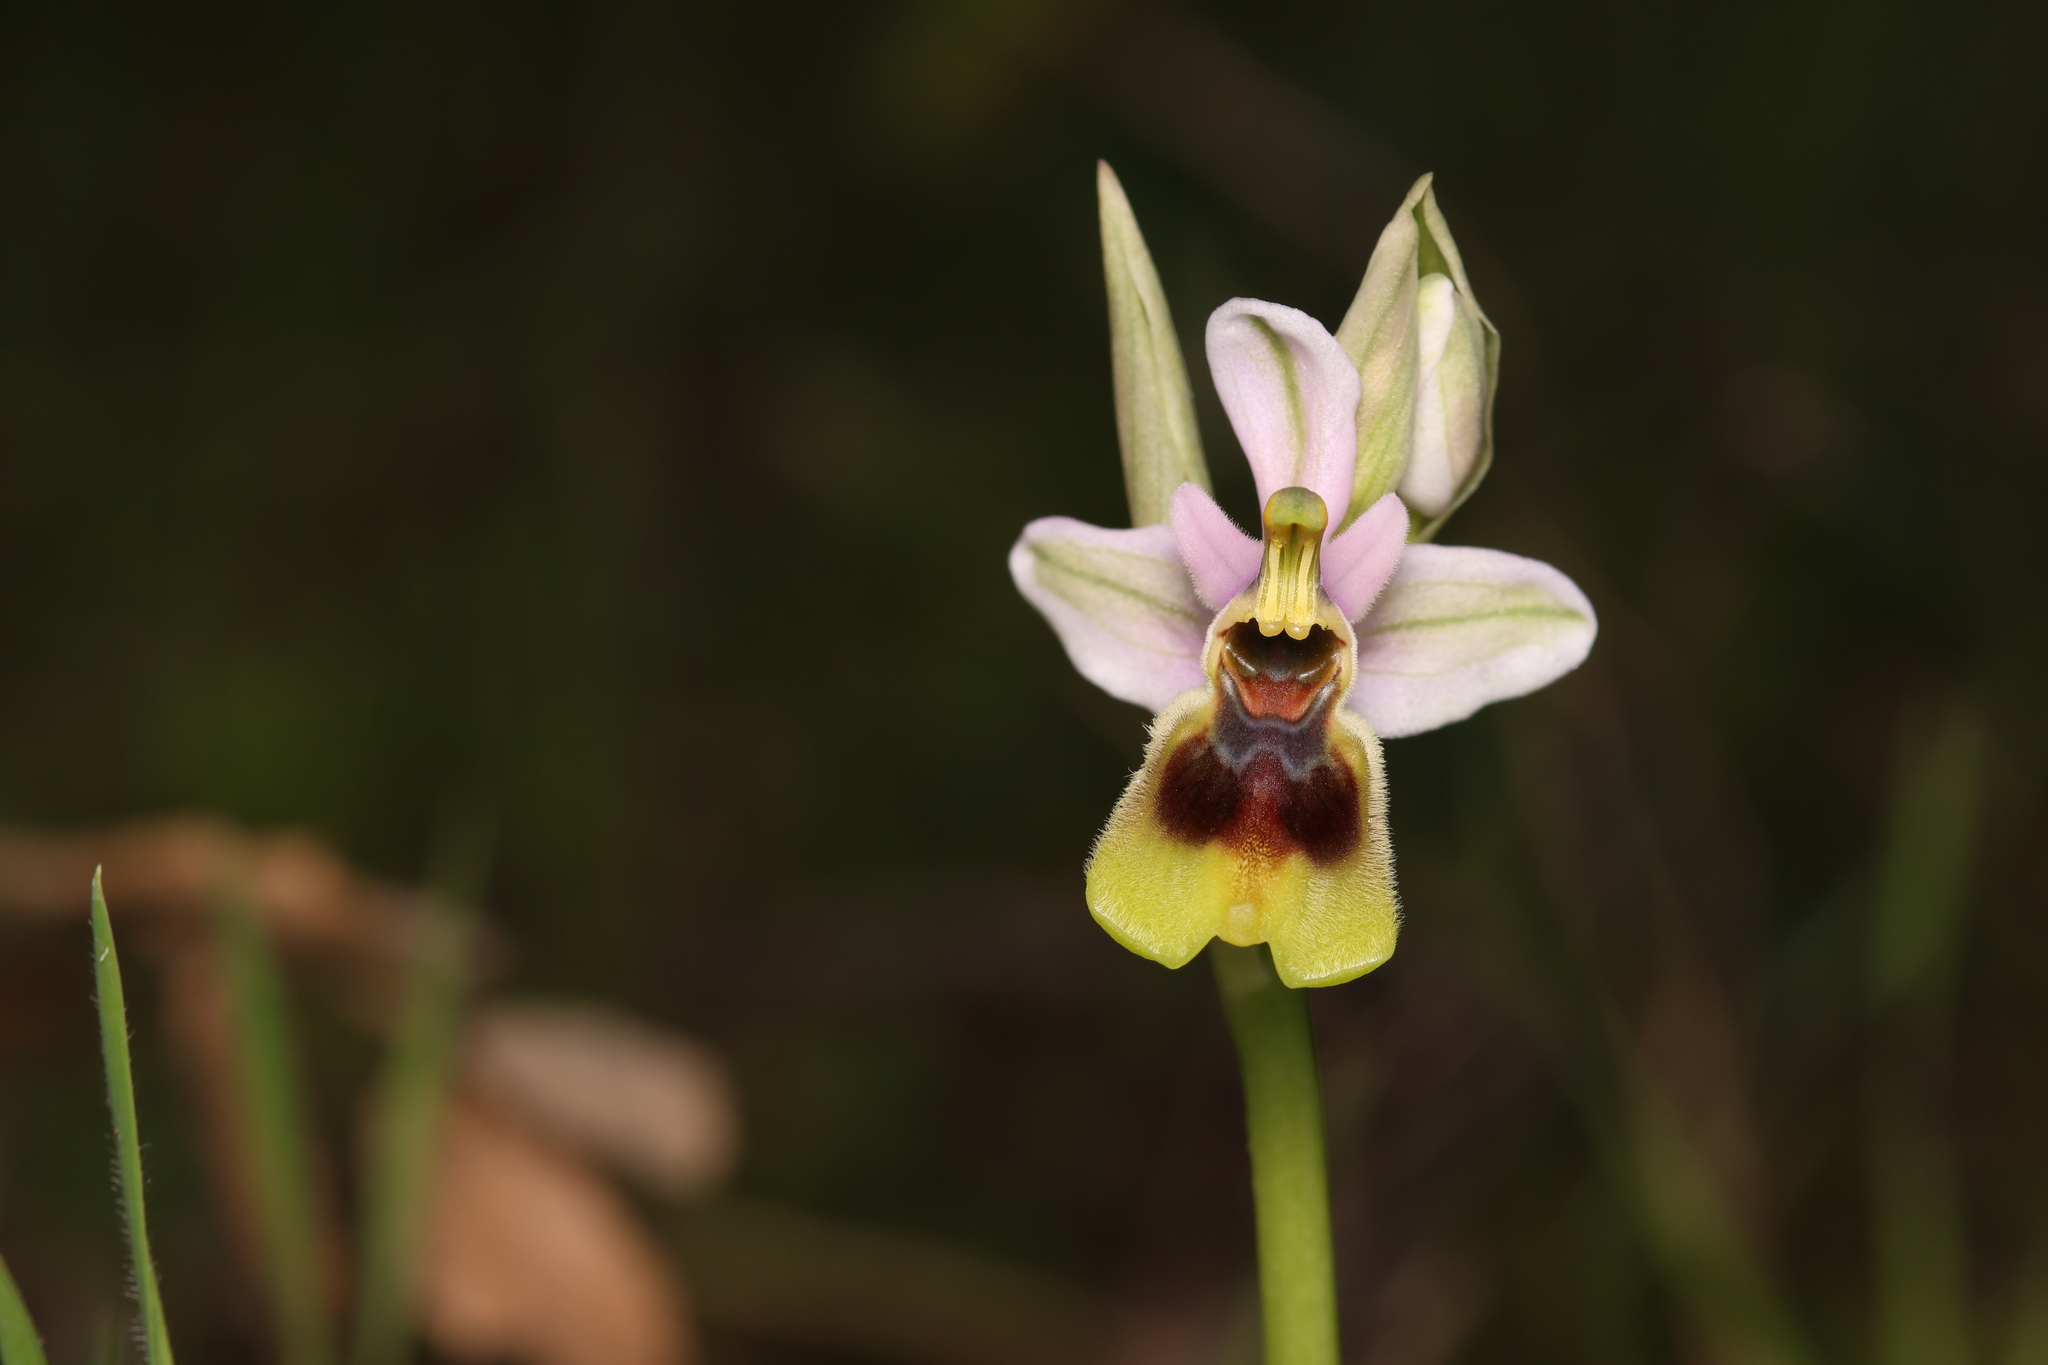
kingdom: Plantae
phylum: Tracheophyta
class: Liliopsida
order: Asparagales
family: Orchidaceae
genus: Ophrys
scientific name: Ophrys tenthredinifera
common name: Sawfly orchid
